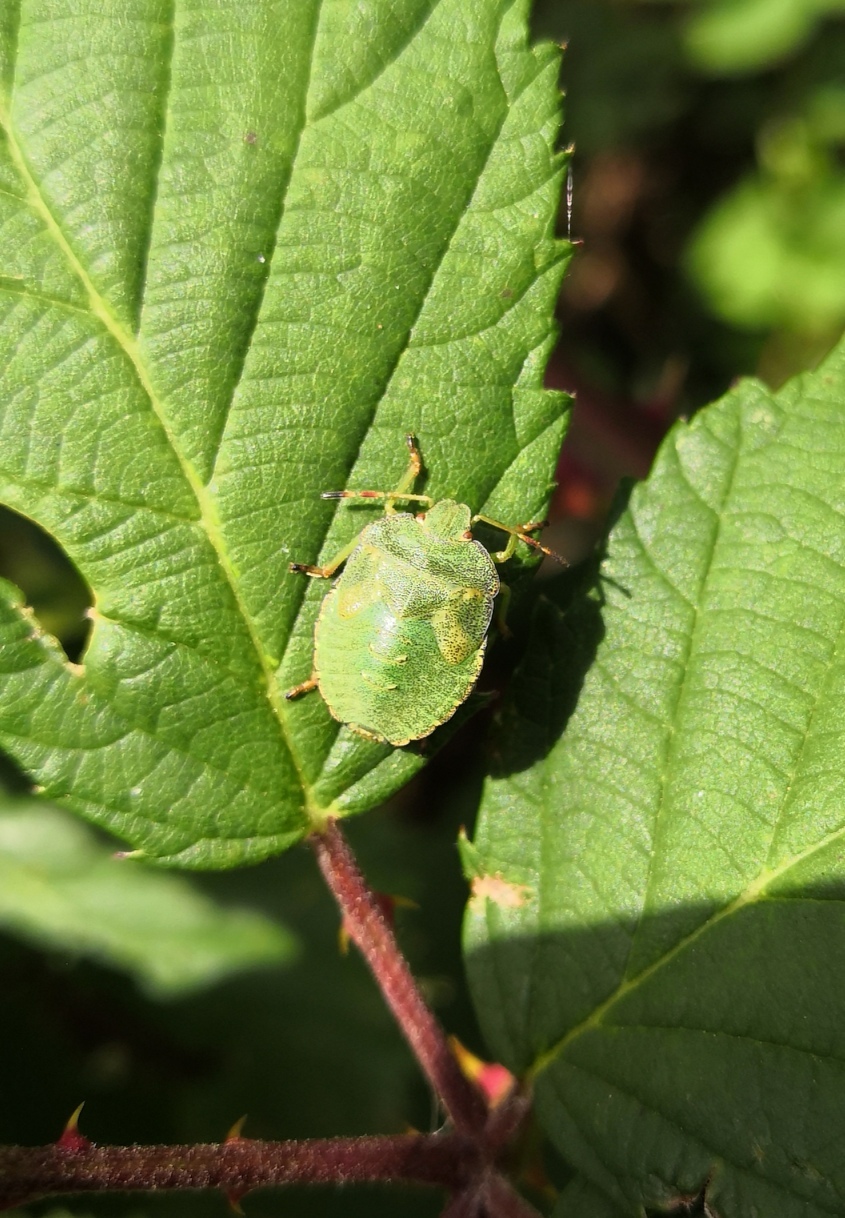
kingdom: Animalia
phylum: Arthropoda
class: Insecta
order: Hemiptera
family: Pentatomidae
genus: Palomena
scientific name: Palomena prasina
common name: Green shieldbug
